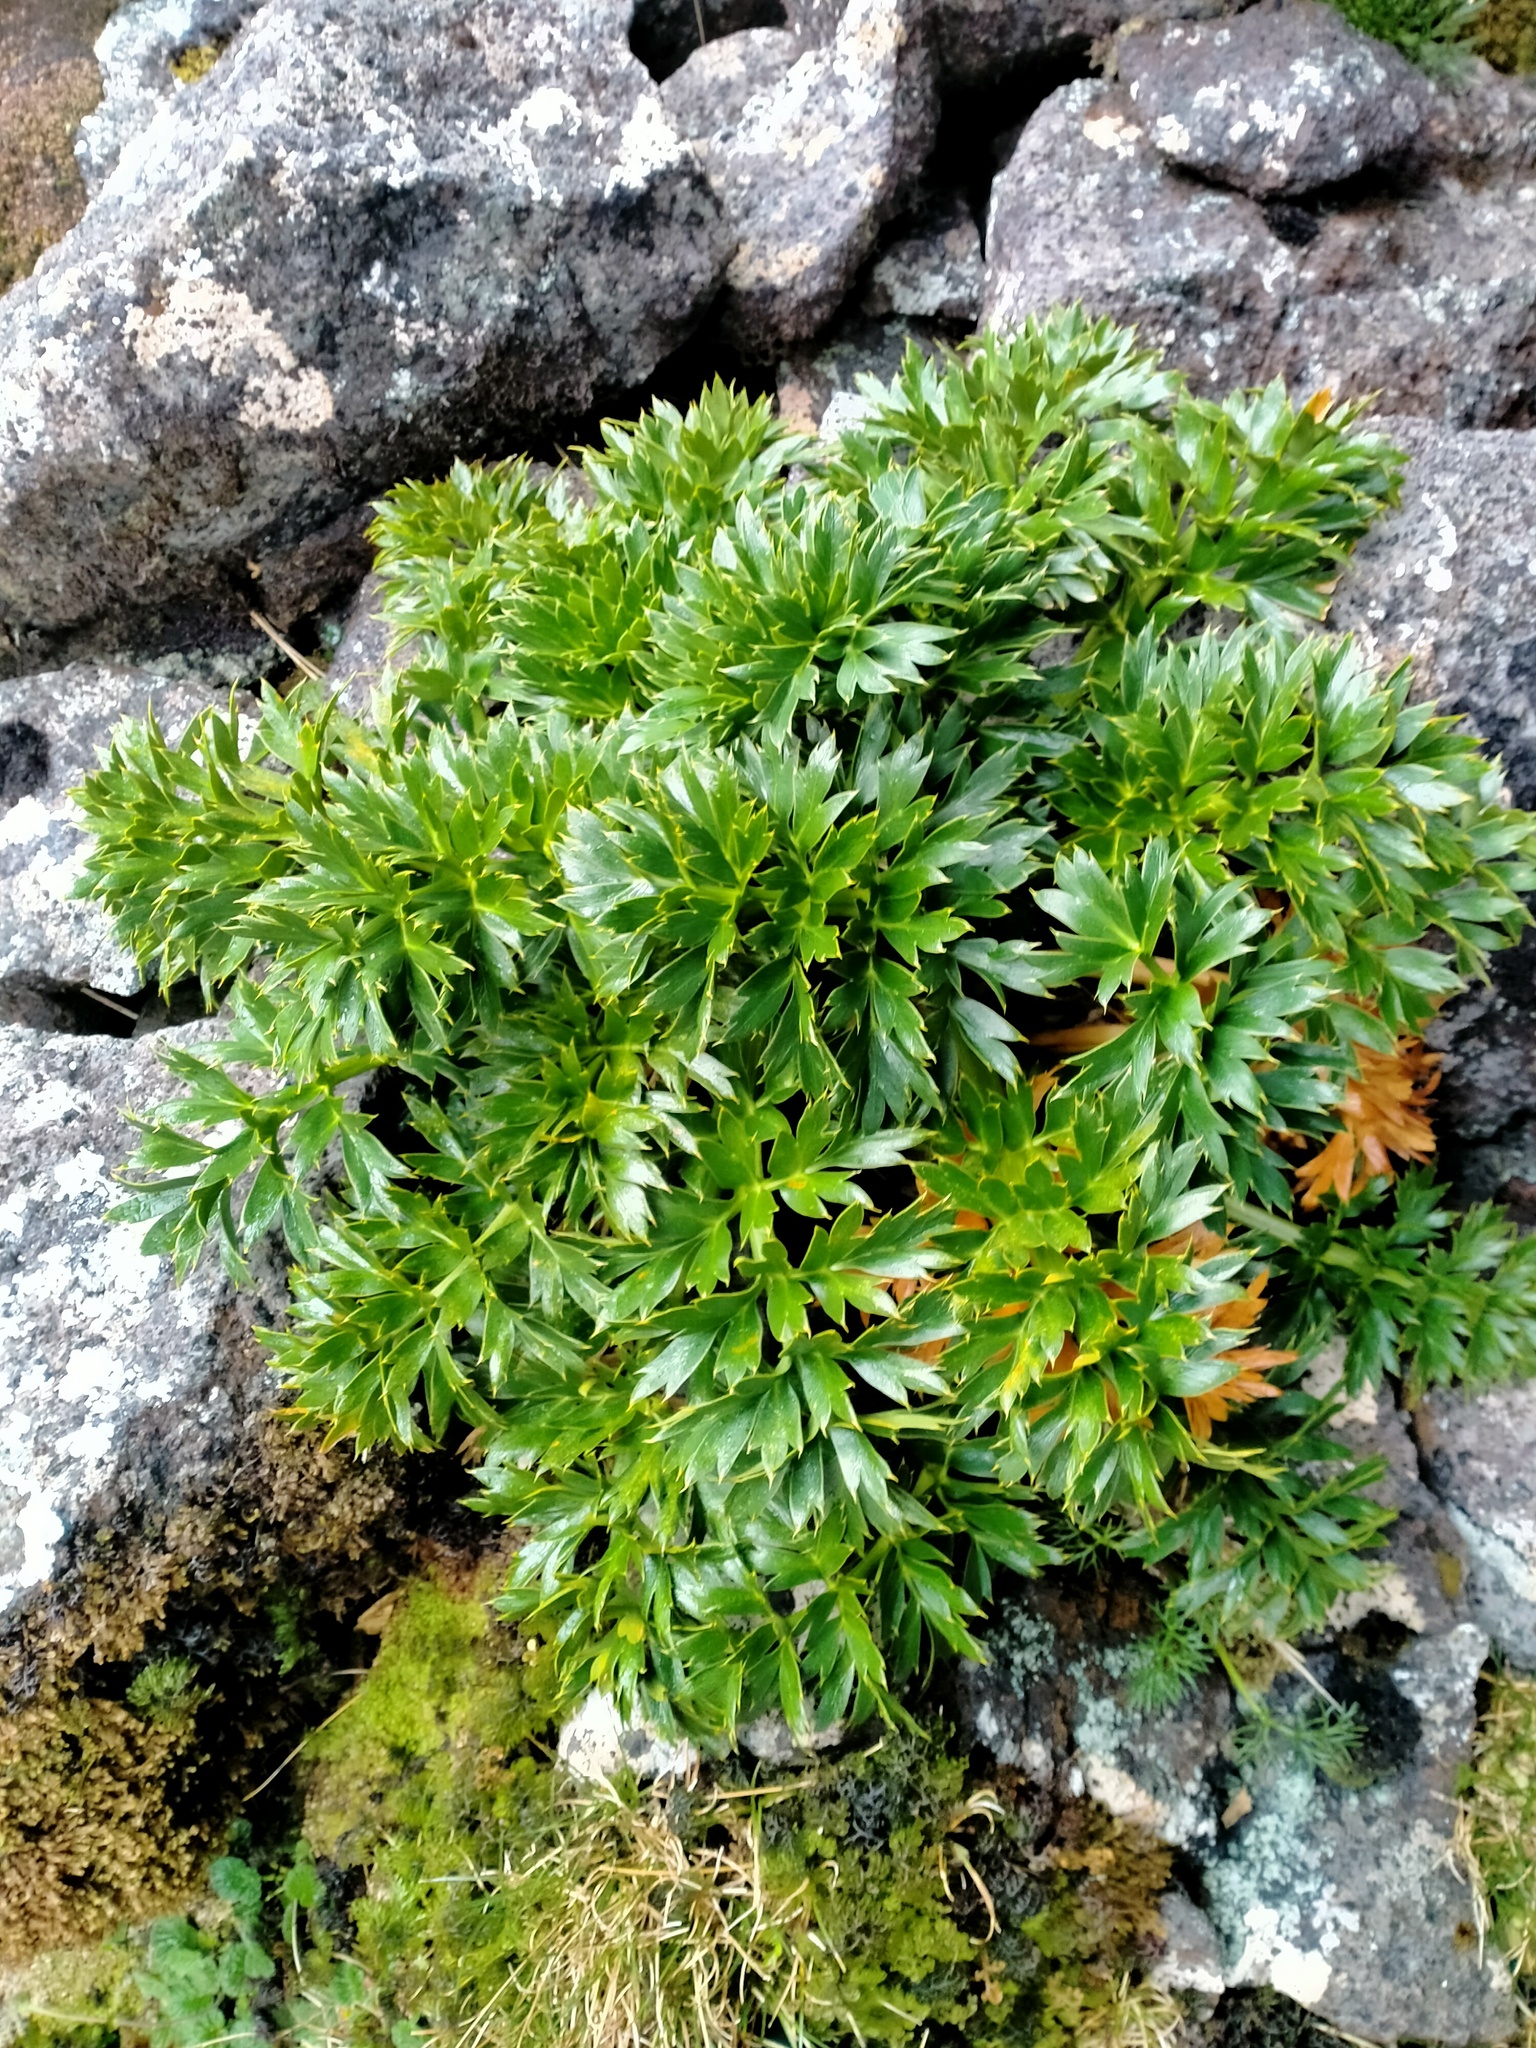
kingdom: Plantae
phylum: Tracheophyta
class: Magnoliopsida
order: Apiales
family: Apiaceae
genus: Anisotome
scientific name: Anisotome latifolia
